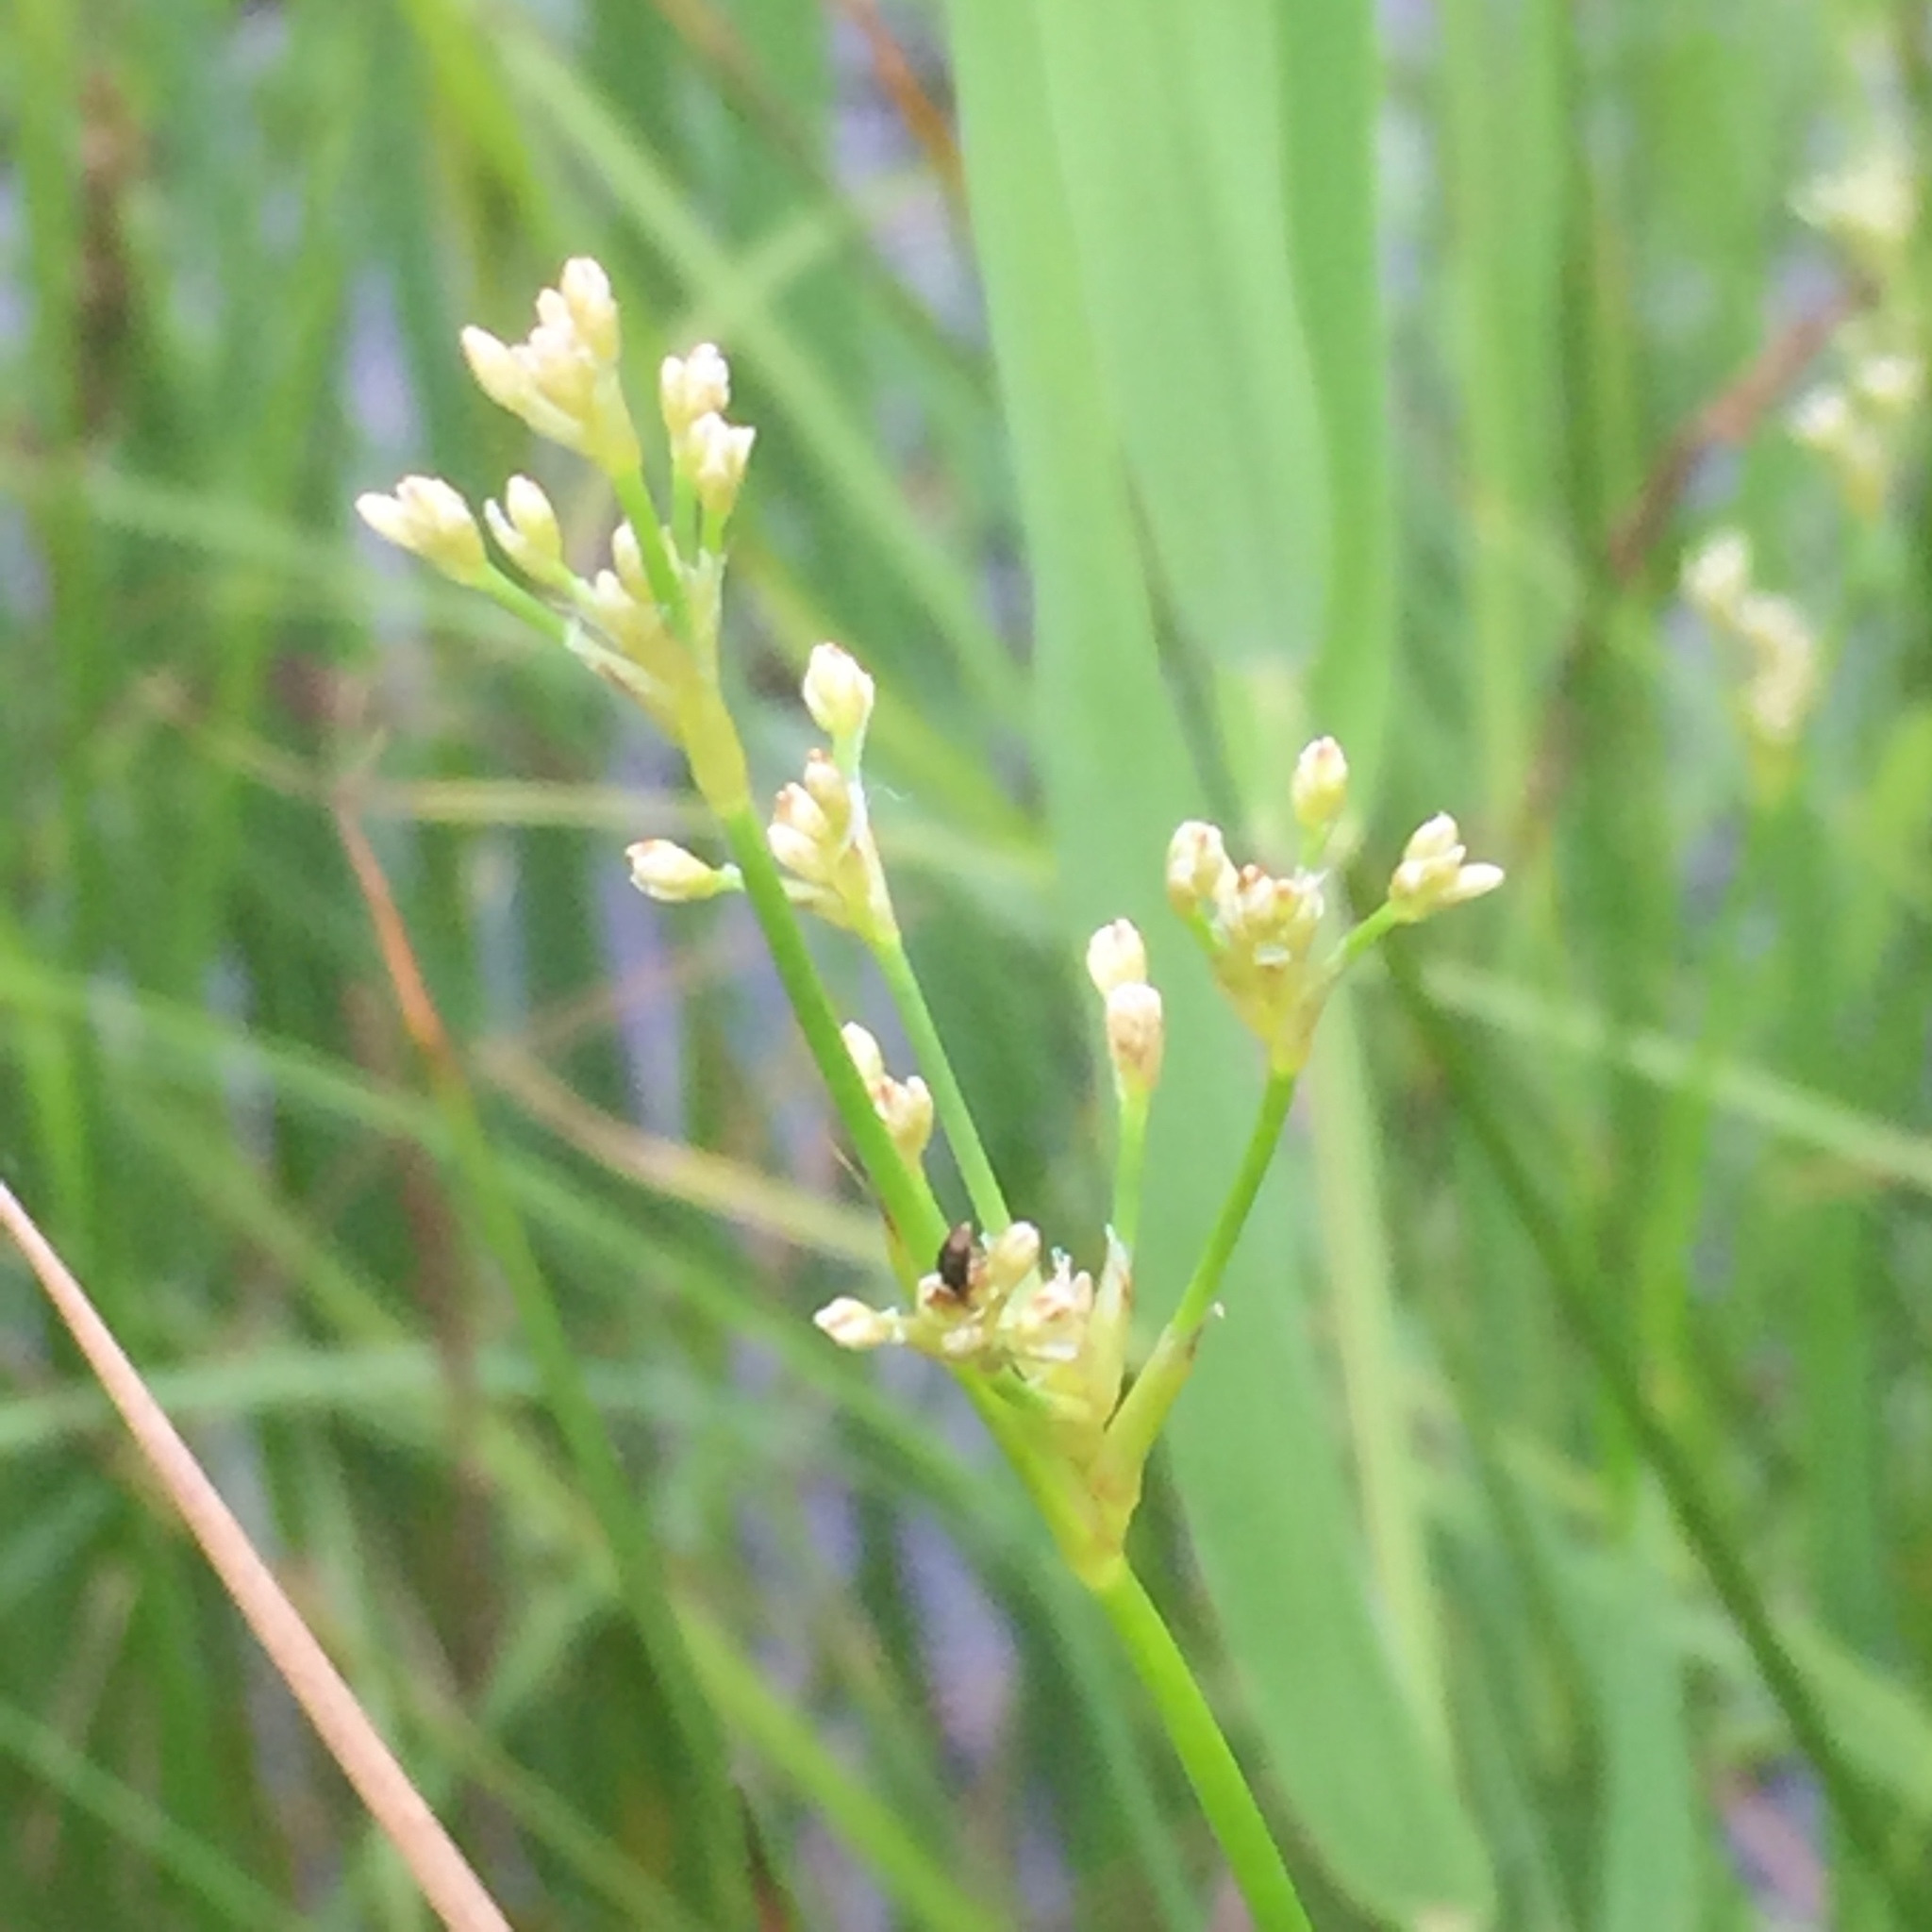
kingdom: Plantae
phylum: Tracheophyta
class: Liliopsida
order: Poales
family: Juncaceae
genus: Juncus
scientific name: Juncus subnodulosus
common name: Blunt-flowered rush
